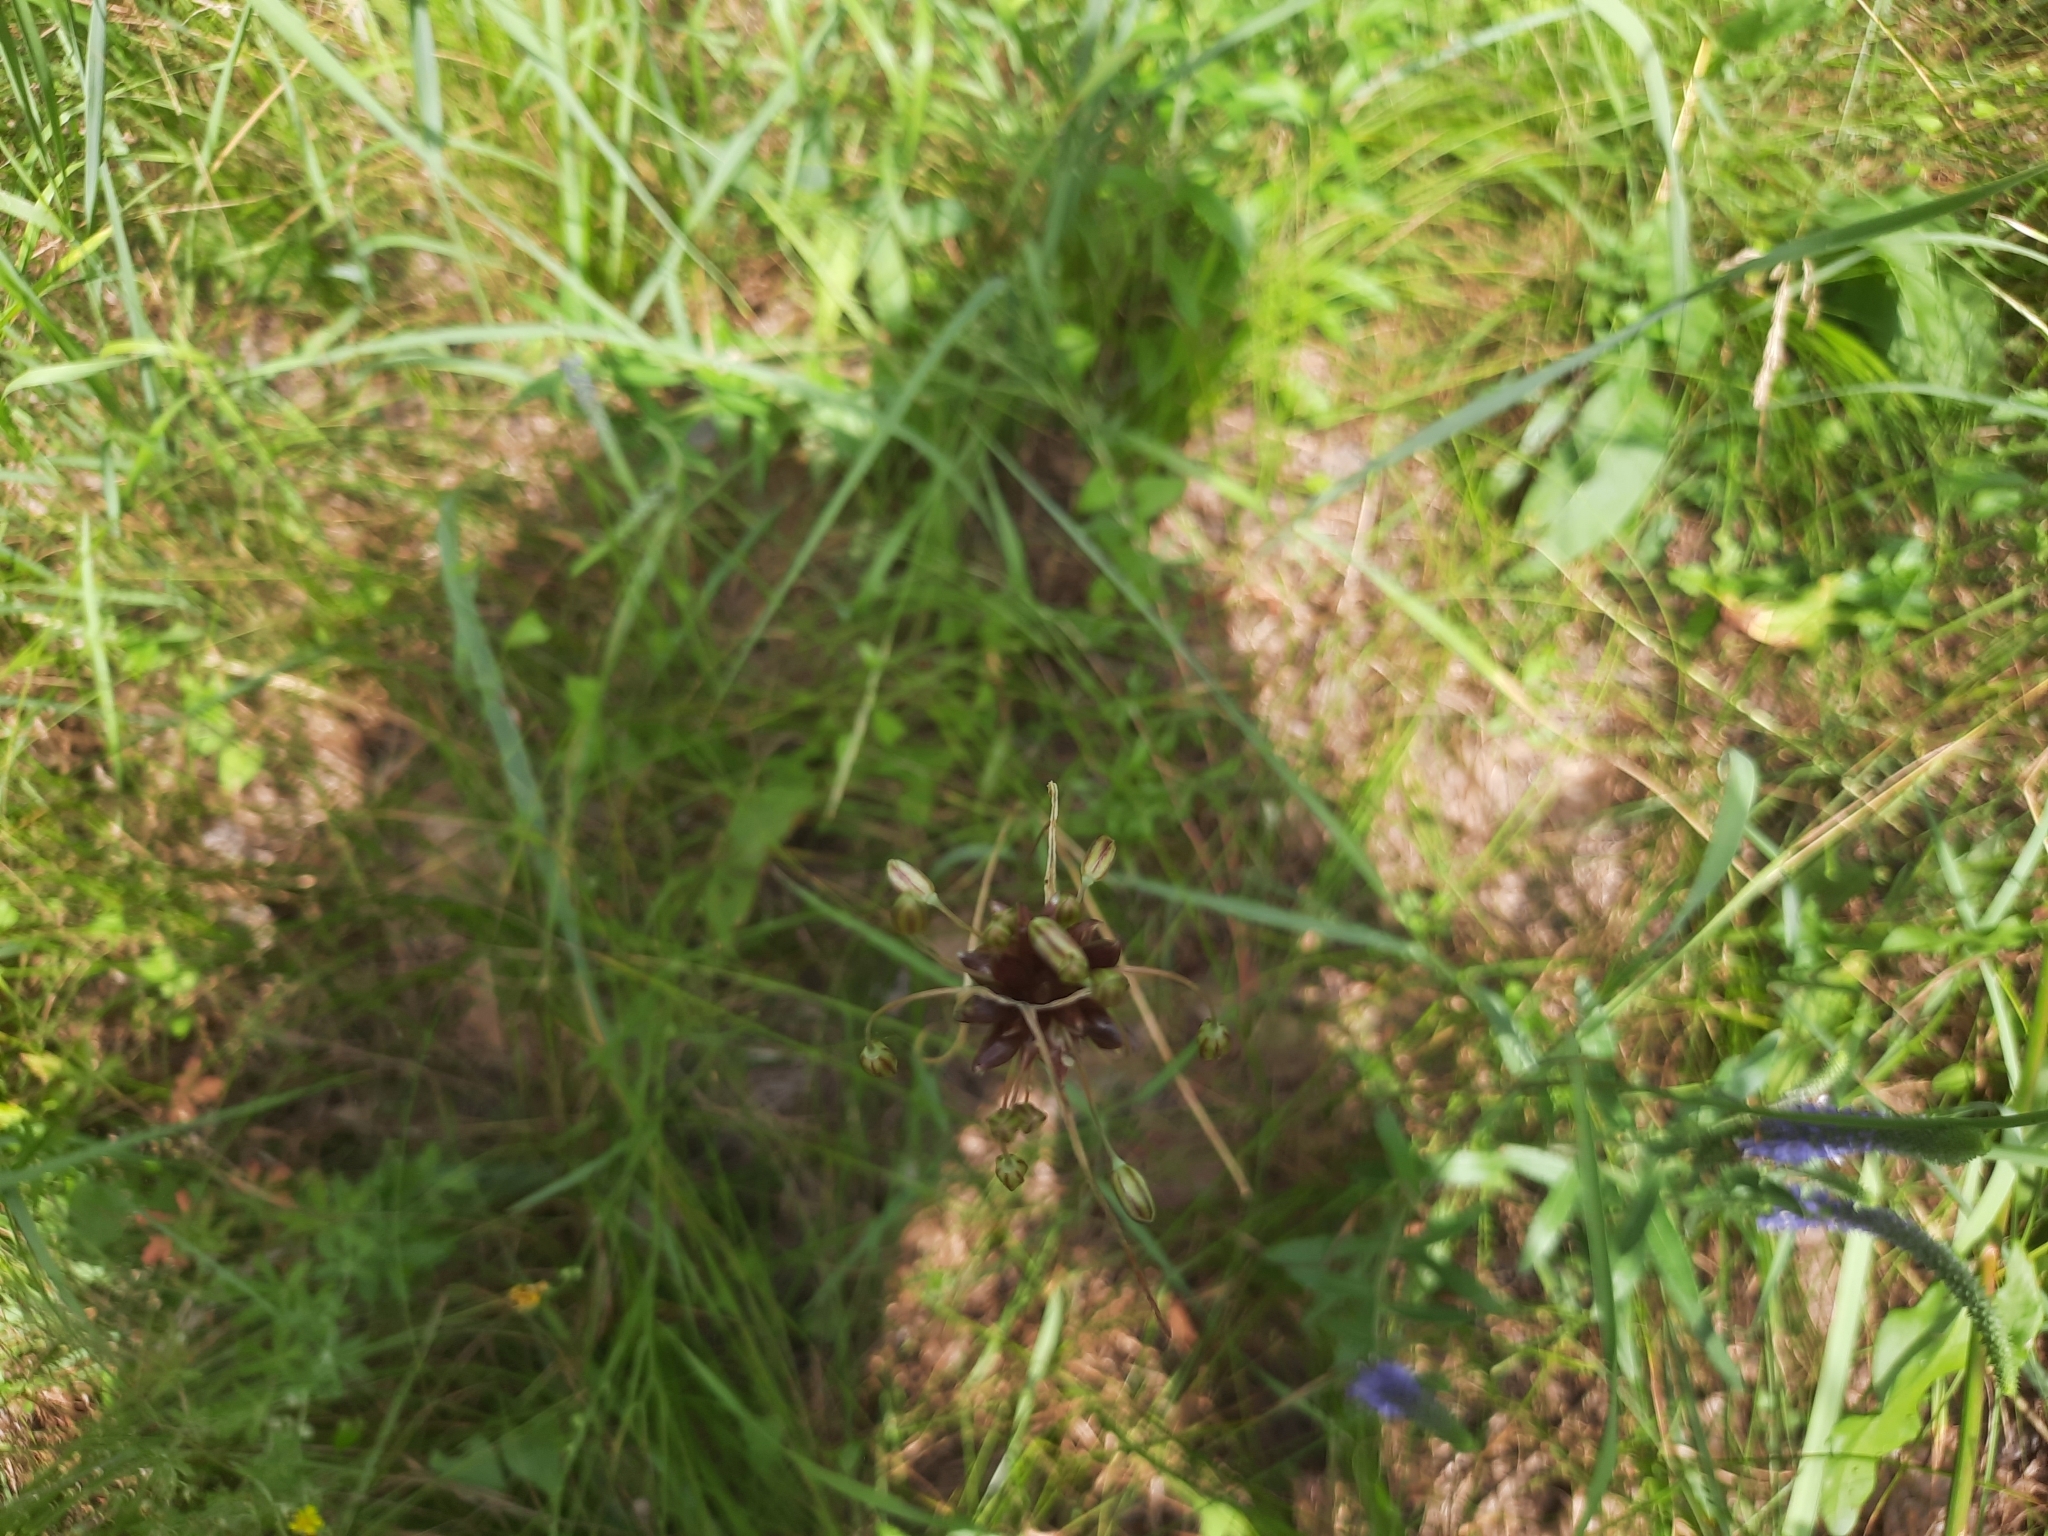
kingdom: Plantae
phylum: Tracheophyta
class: Liliopsida
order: Asparagales
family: Amaryllidaceae
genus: Allium
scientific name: Allium oleraceum
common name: Field garlic
